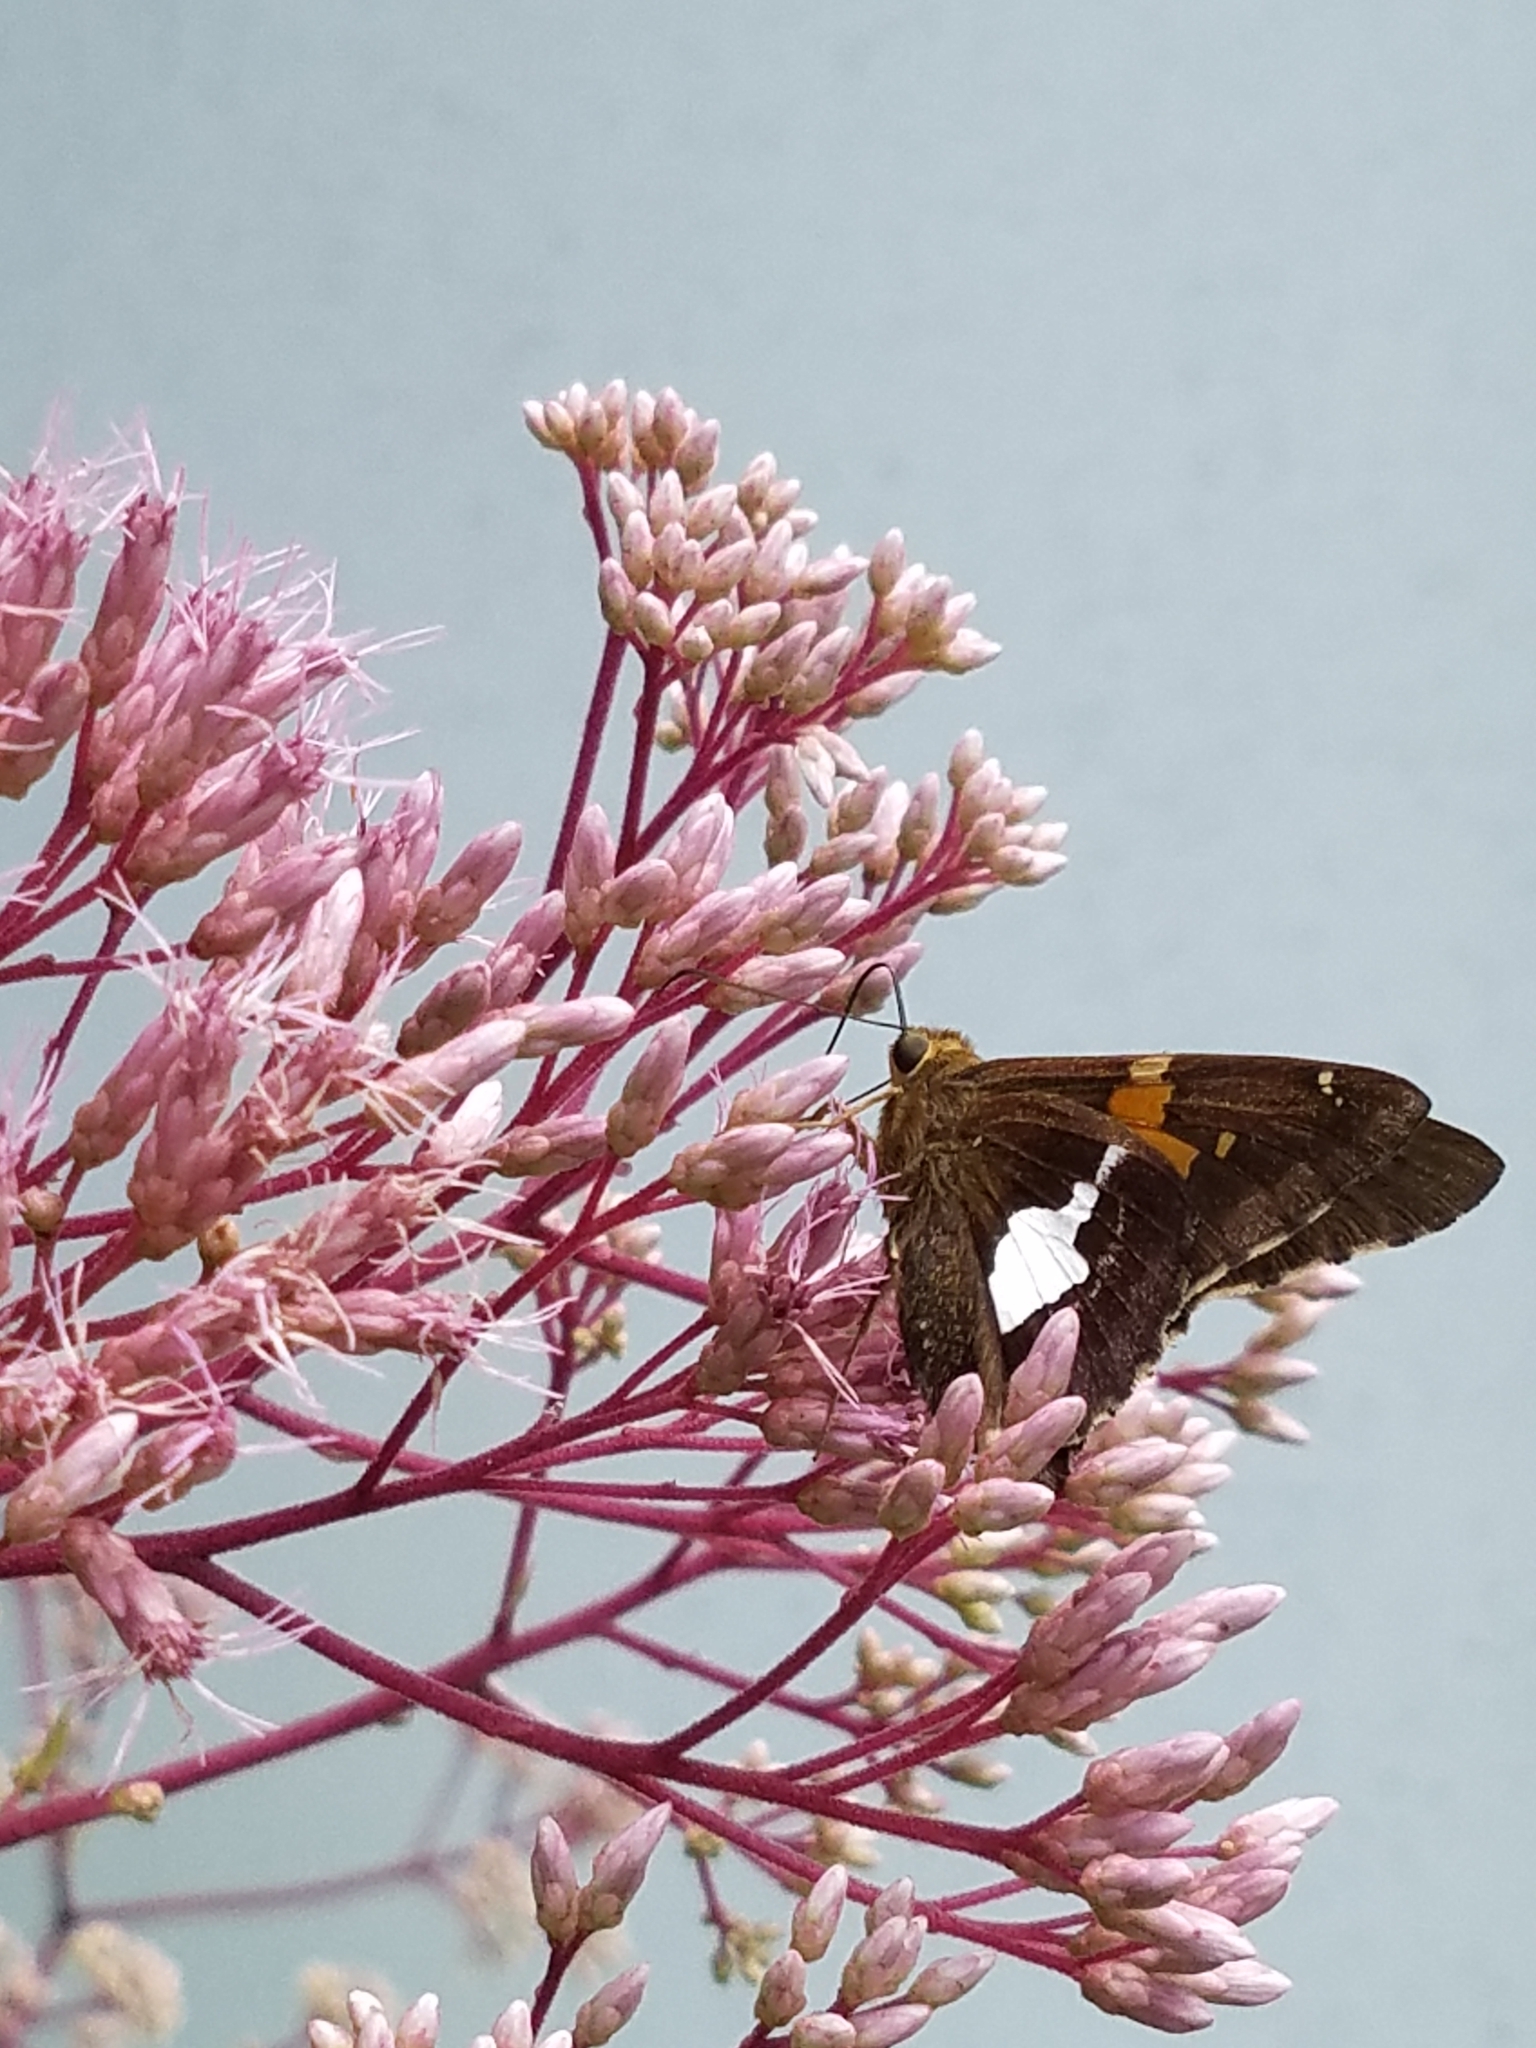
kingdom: Animalia
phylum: Arthropoda
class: Insecta
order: Lepidoptera
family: Hesperiidae
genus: Epargyreus
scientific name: Epargyreus clarus
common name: Silver-spotted skipper
